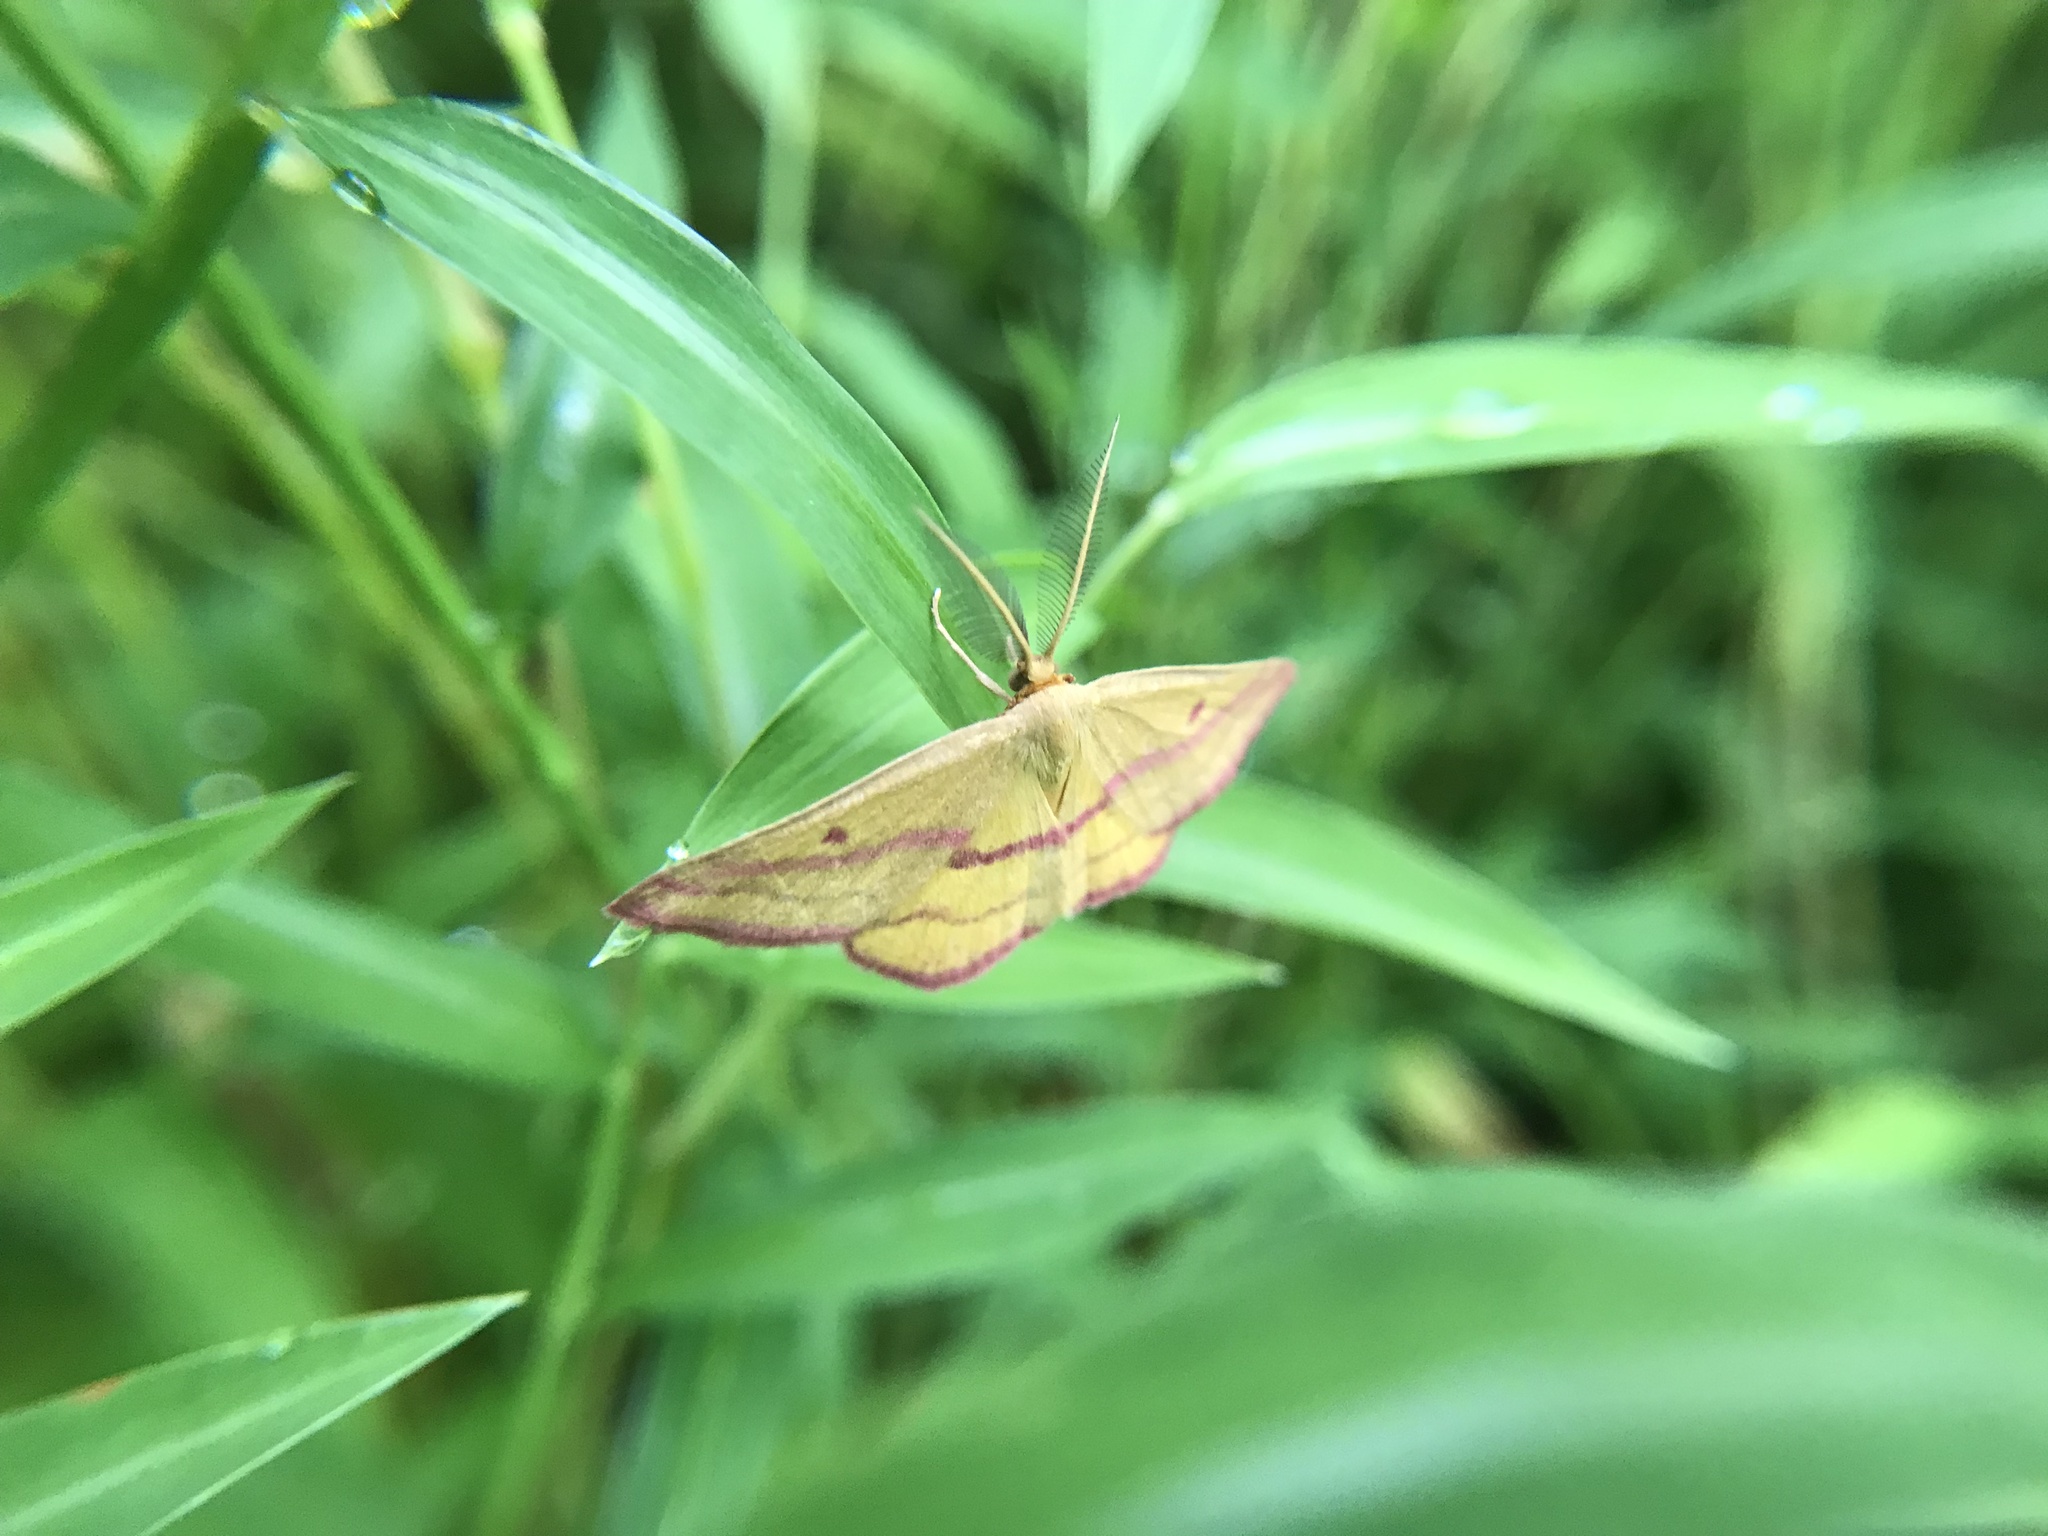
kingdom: Animalia
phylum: Arthropoda
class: Insecta
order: Lepidoptera
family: Geometridae
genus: Haematopis
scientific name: Haematopis grataria
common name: Chickweed geometer
